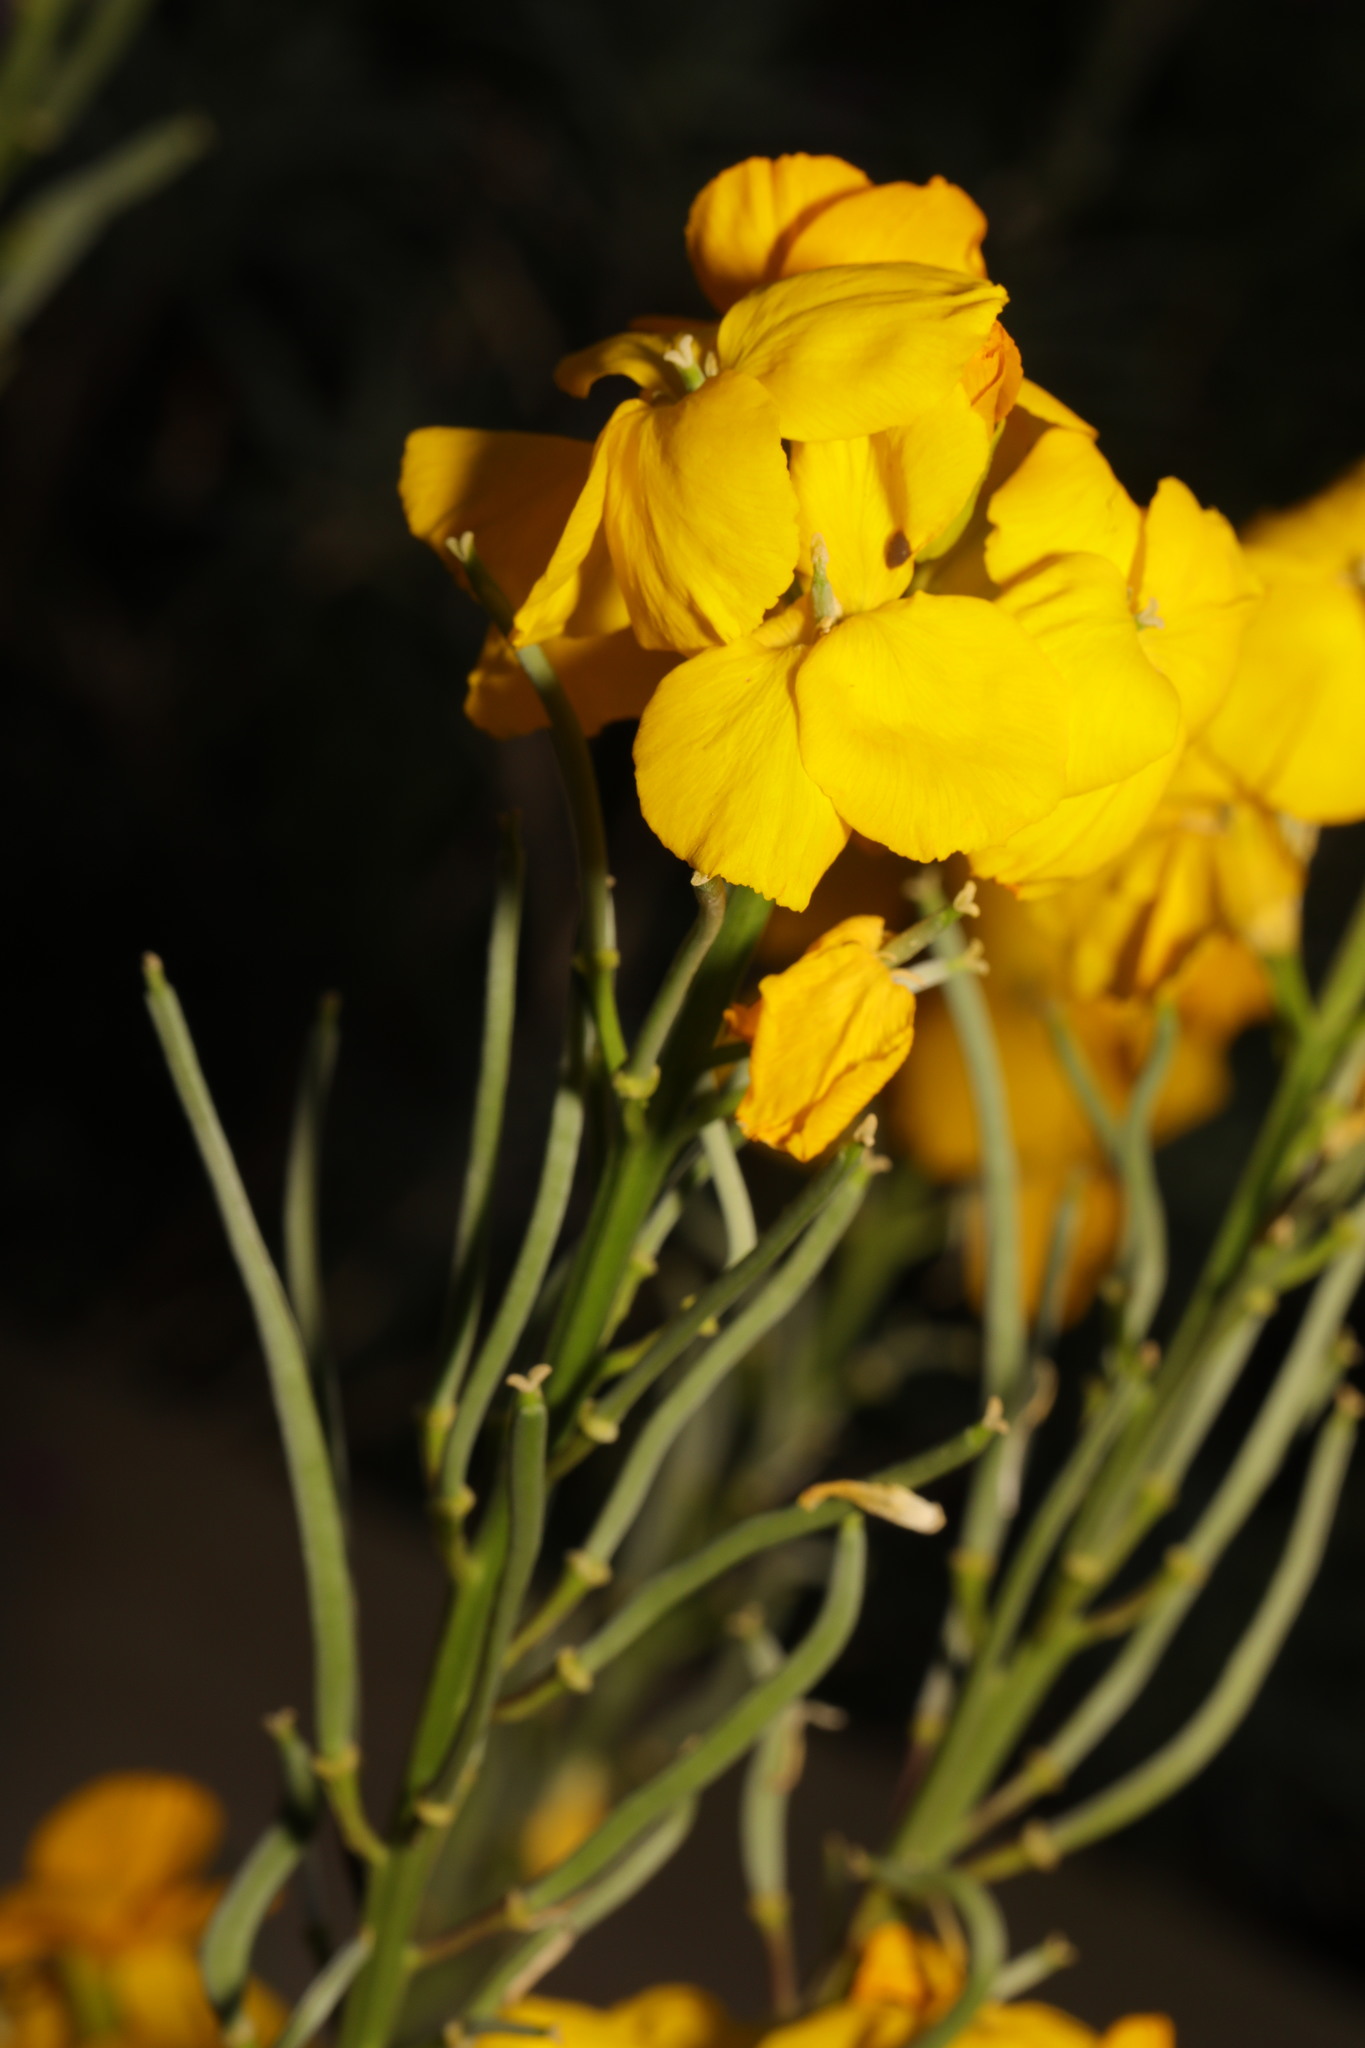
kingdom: Plantae
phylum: Tracheophyta
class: Magnoliopsida
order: Brassicales
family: Brassicaceae
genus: Erysimum
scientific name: Erysimum cheiri
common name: Wallflower
